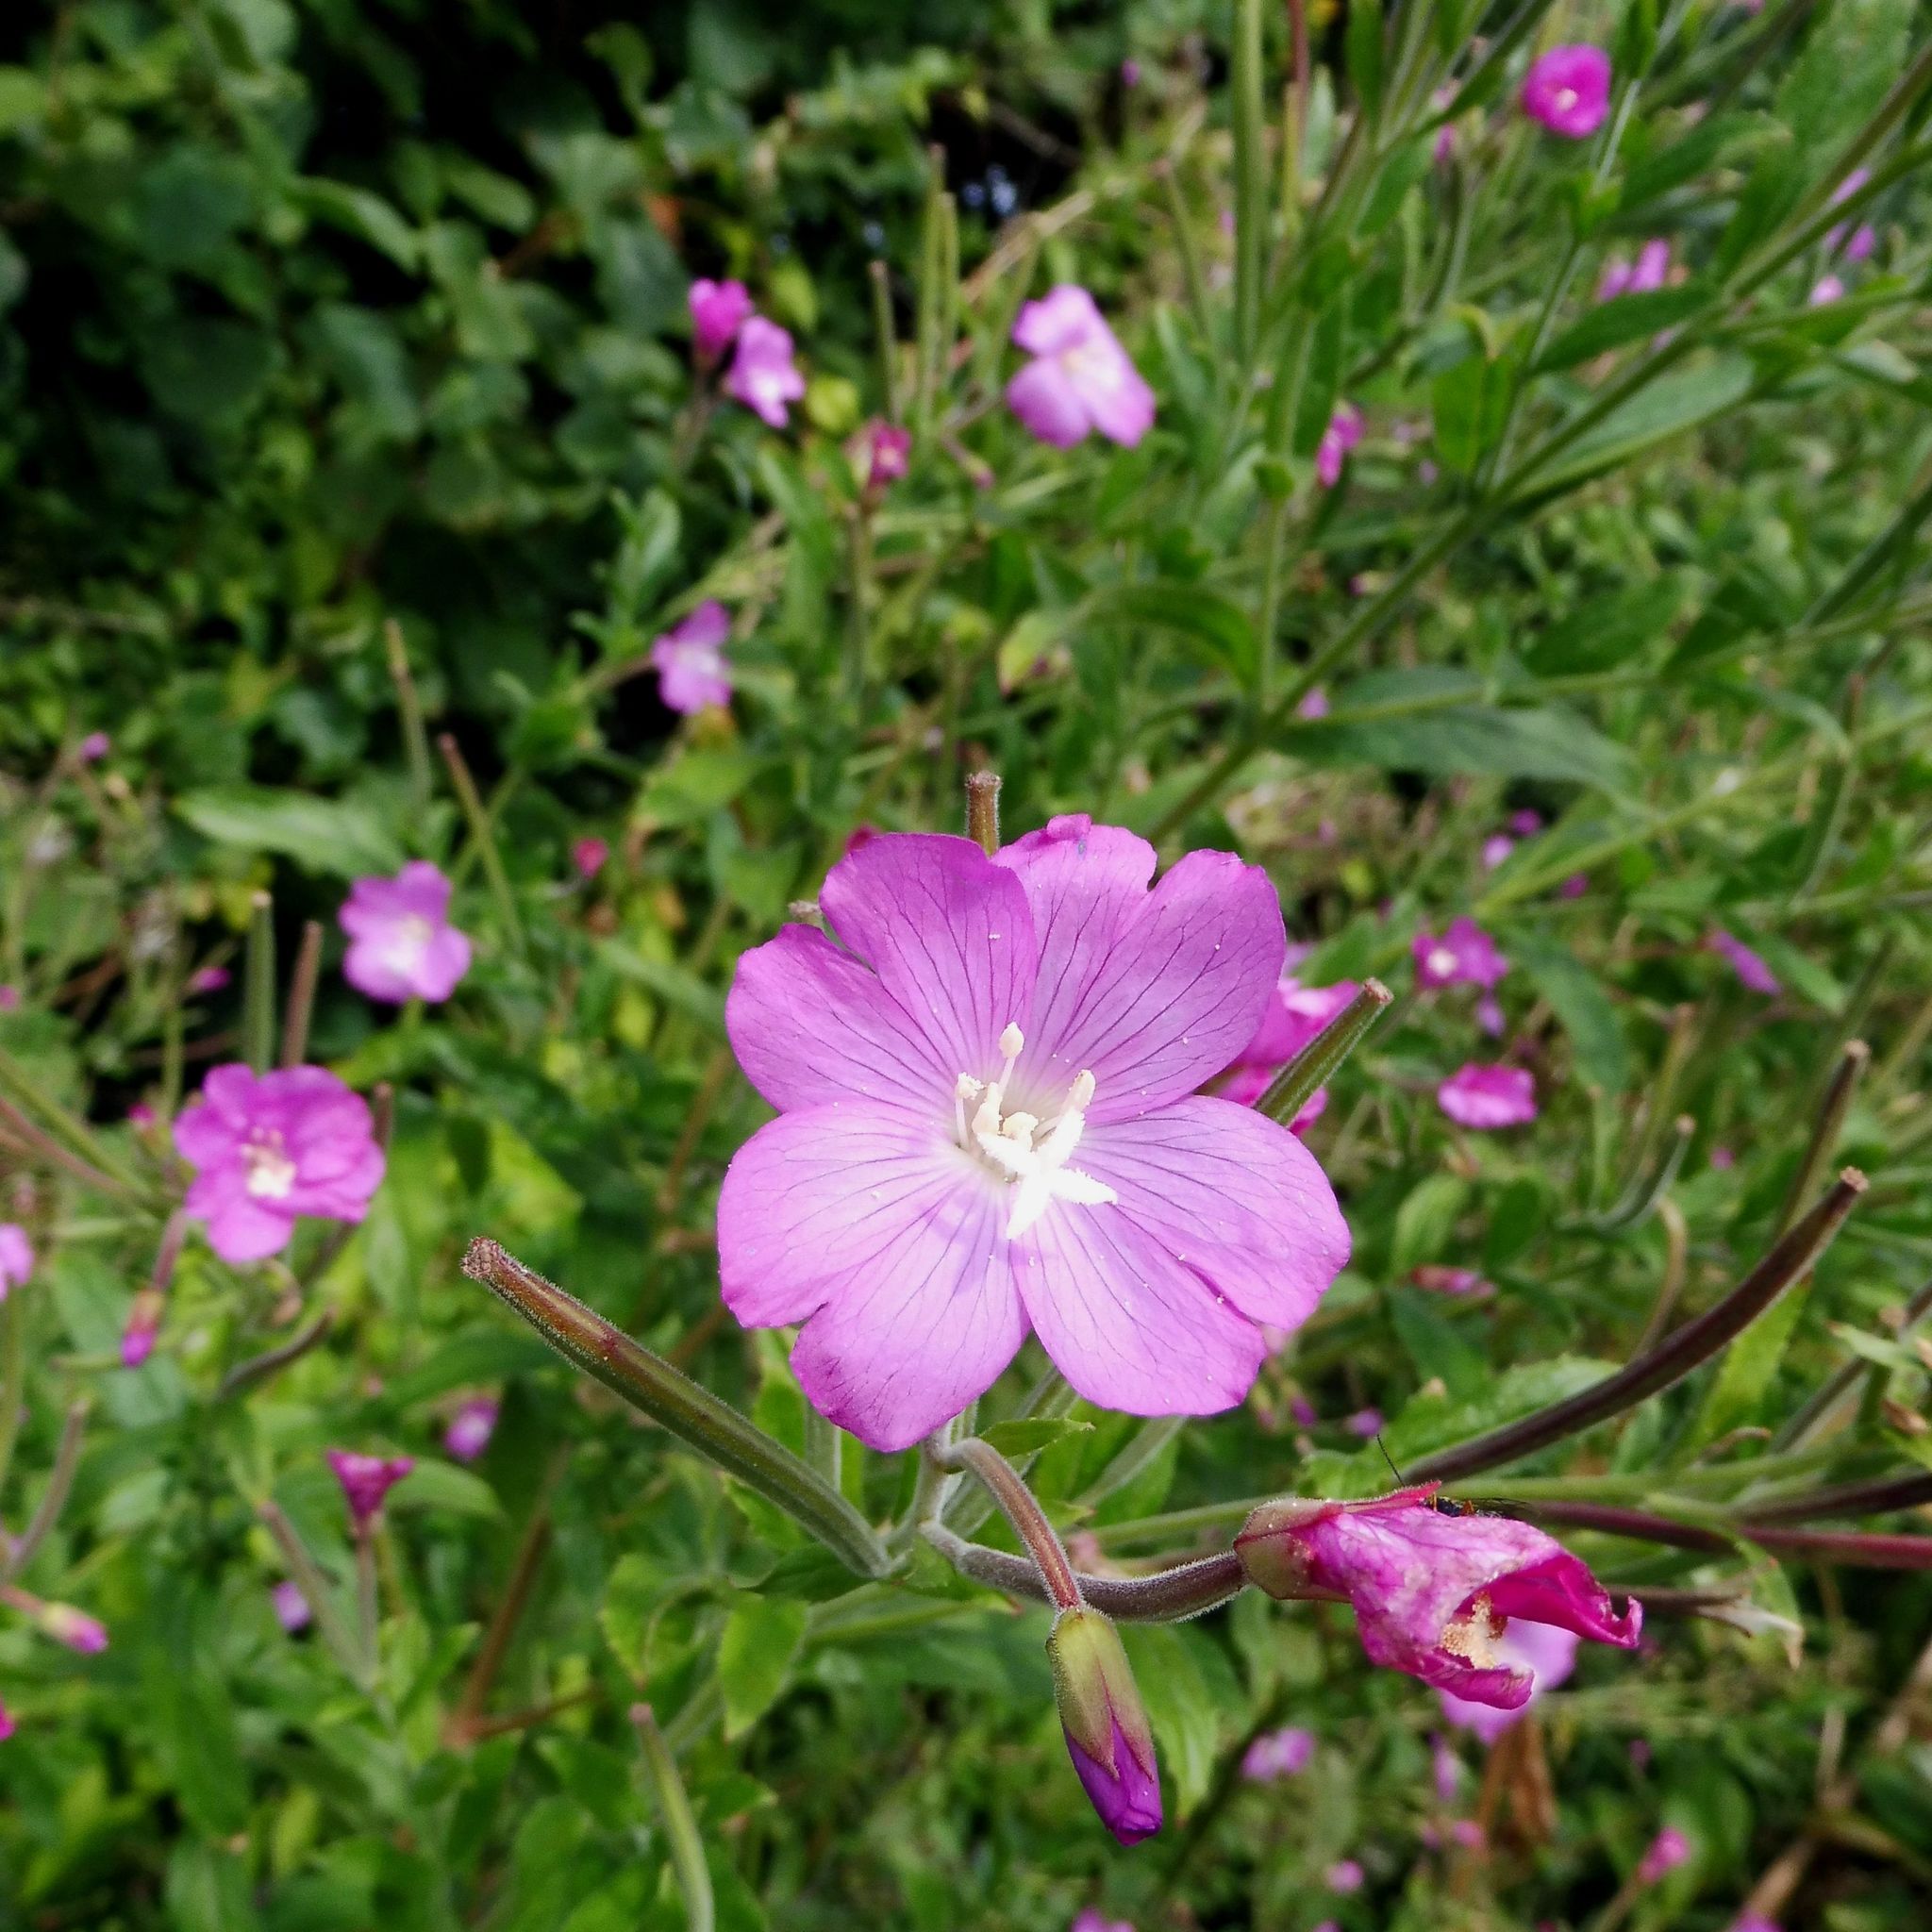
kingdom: Plantae
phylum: Tracheophyta
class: Magnoliopsida
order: Myrtales
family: Onagraceae
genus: Epilobium
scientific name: Epilobium hirsutum
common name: Great willowherb
